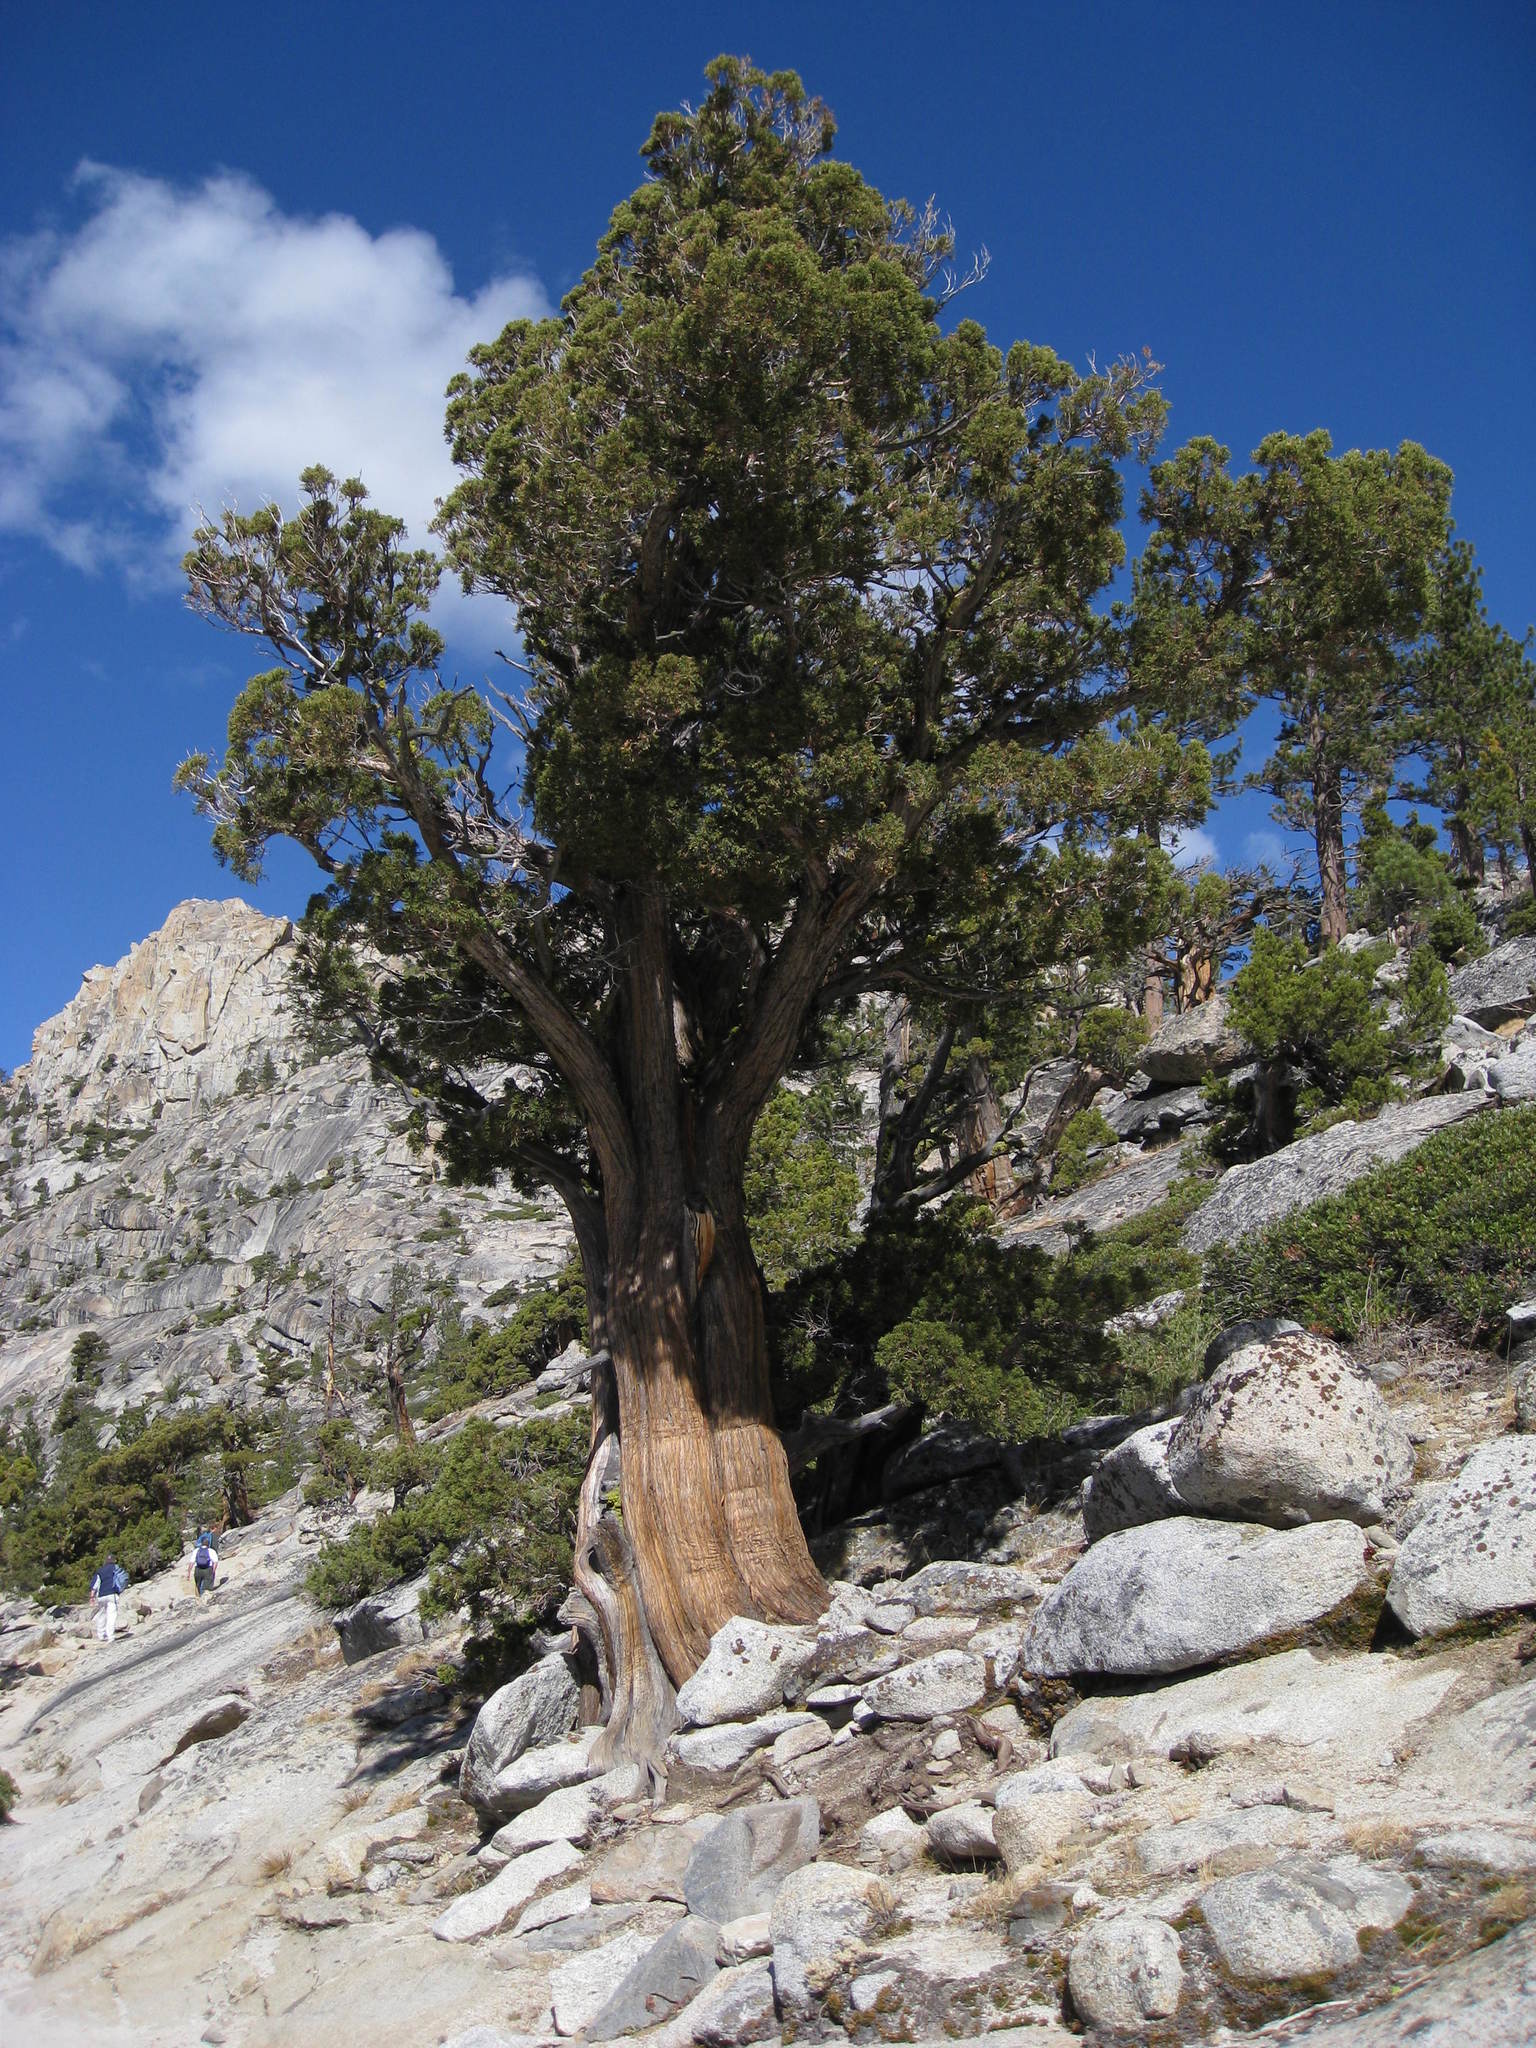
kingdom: Plantae
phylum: Tracheophyta
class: Pinopsida
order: Pinales
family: Cupressaceae
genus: Juniperus
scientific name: Juniperus occidentalis
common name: Western juniper
